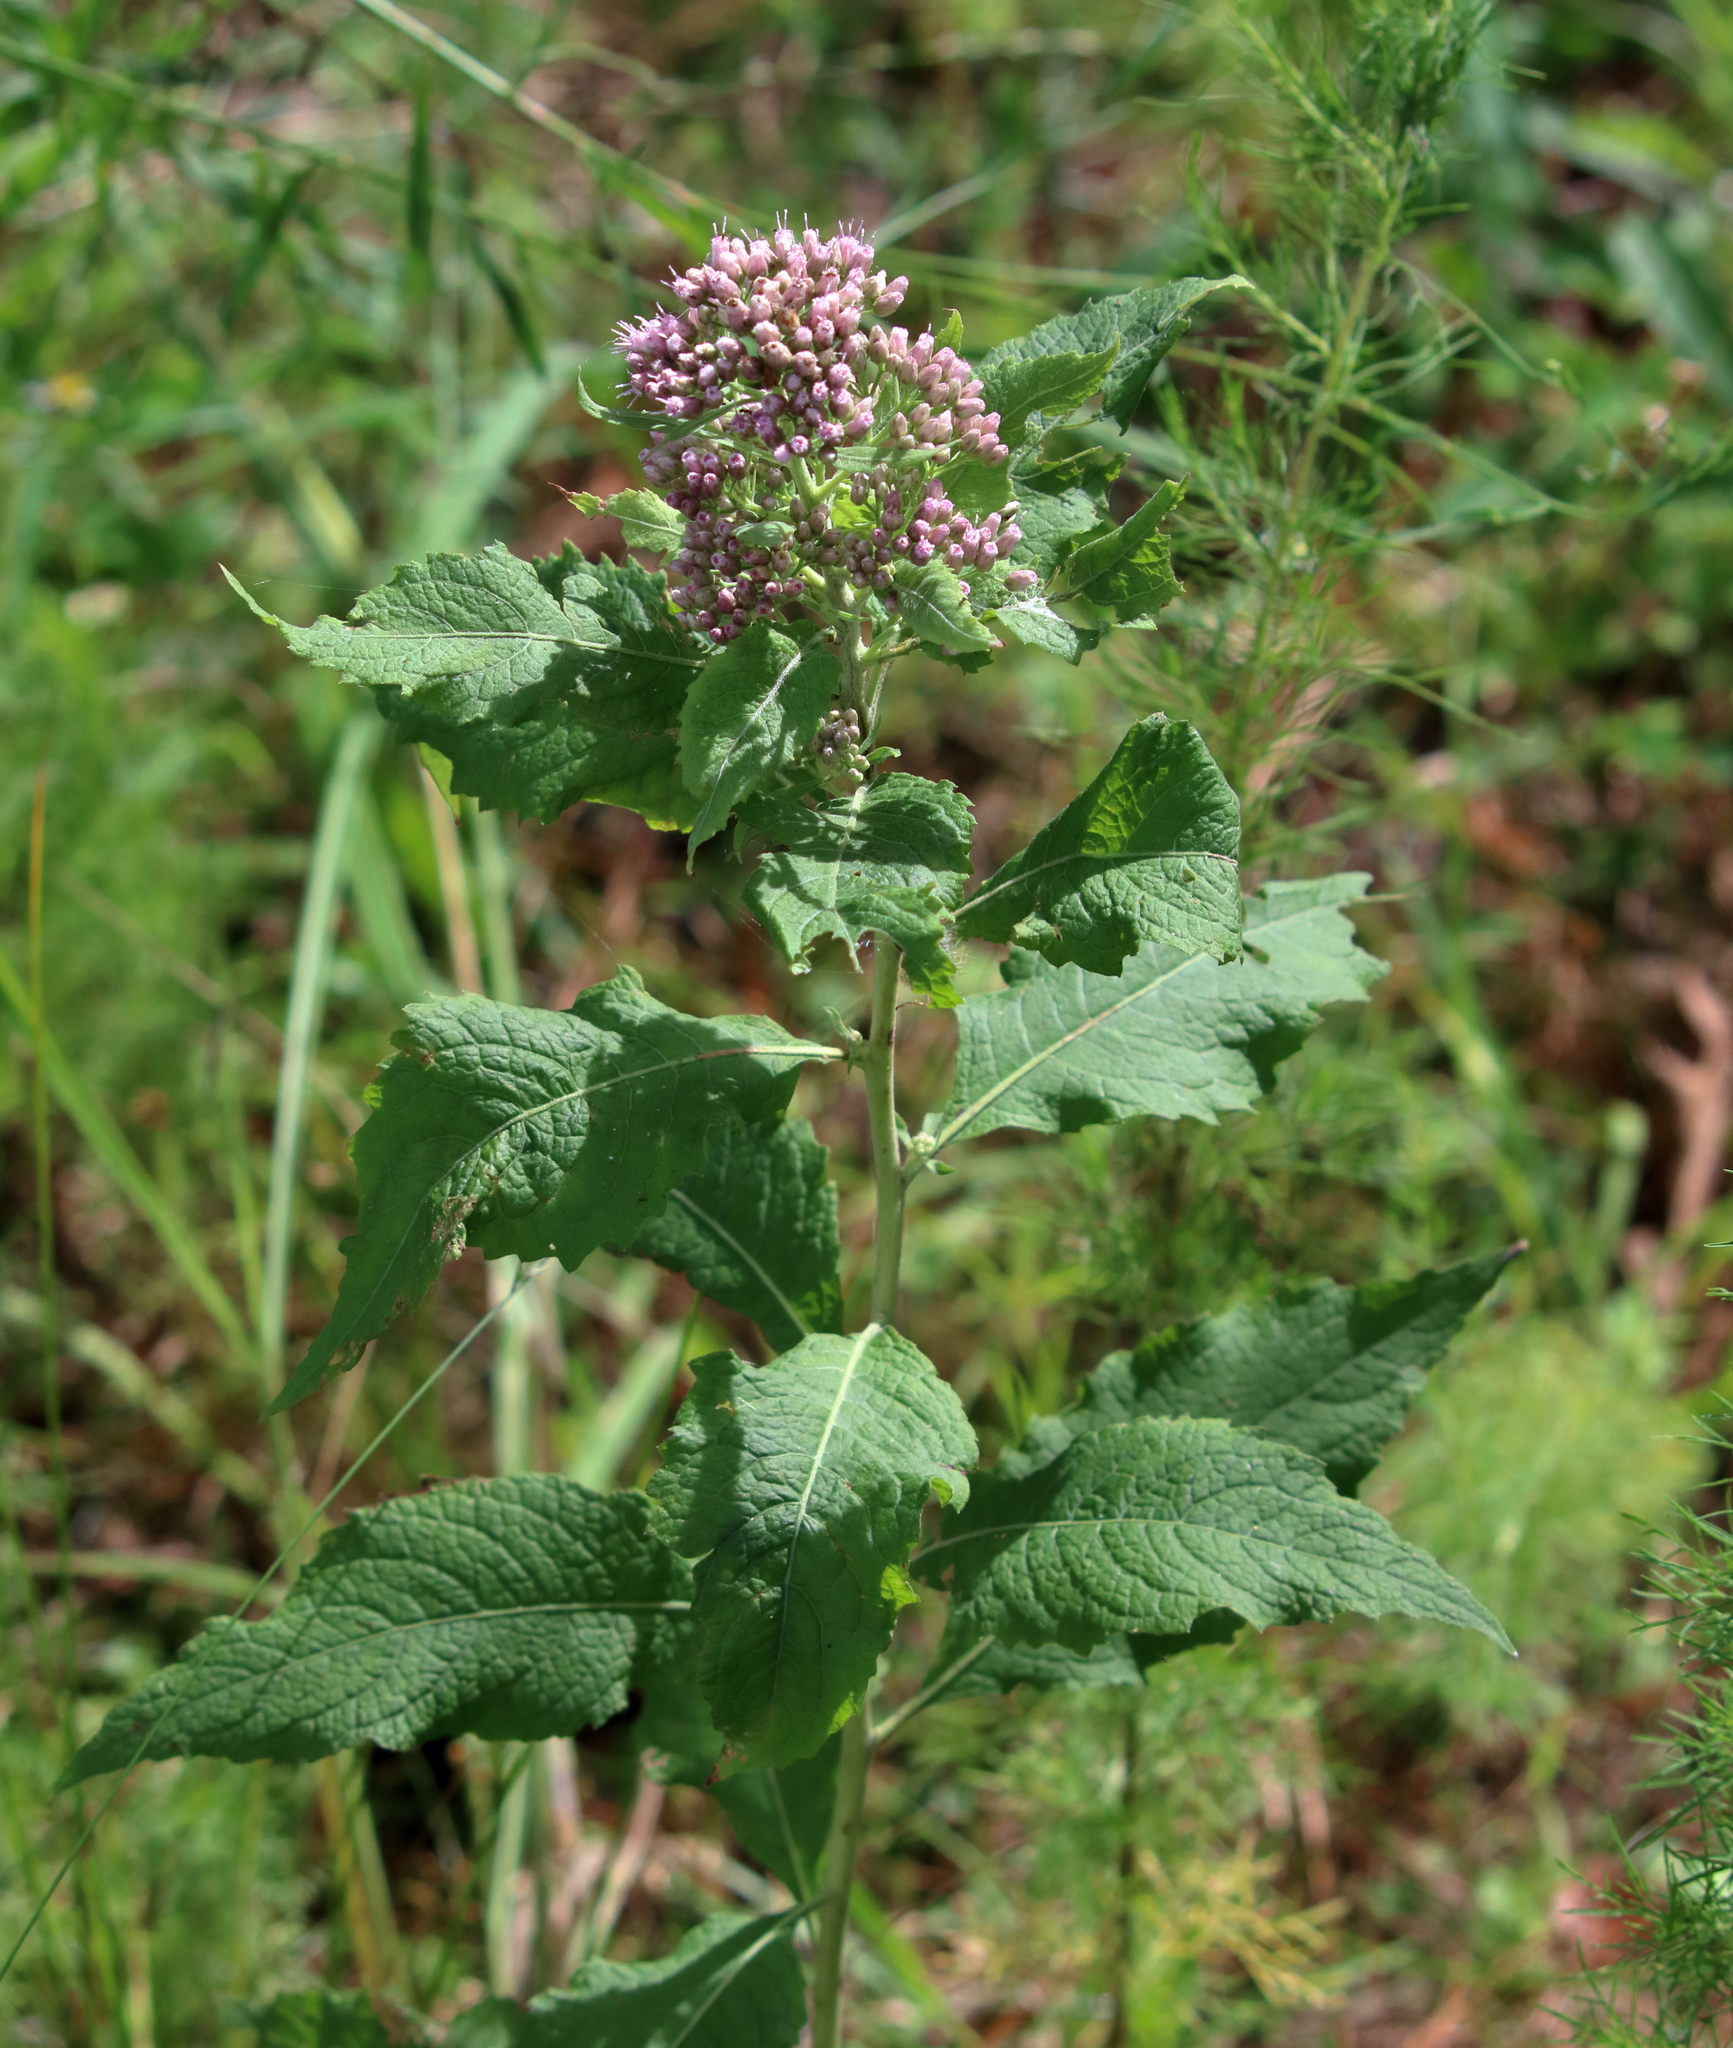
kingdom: Plantae
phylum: Tracheophyta
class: Magnoliopsida
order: Asterales
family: Asteraceae
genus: Pluchea
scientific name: Pluchea camphorata
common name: Camphor pluchea
